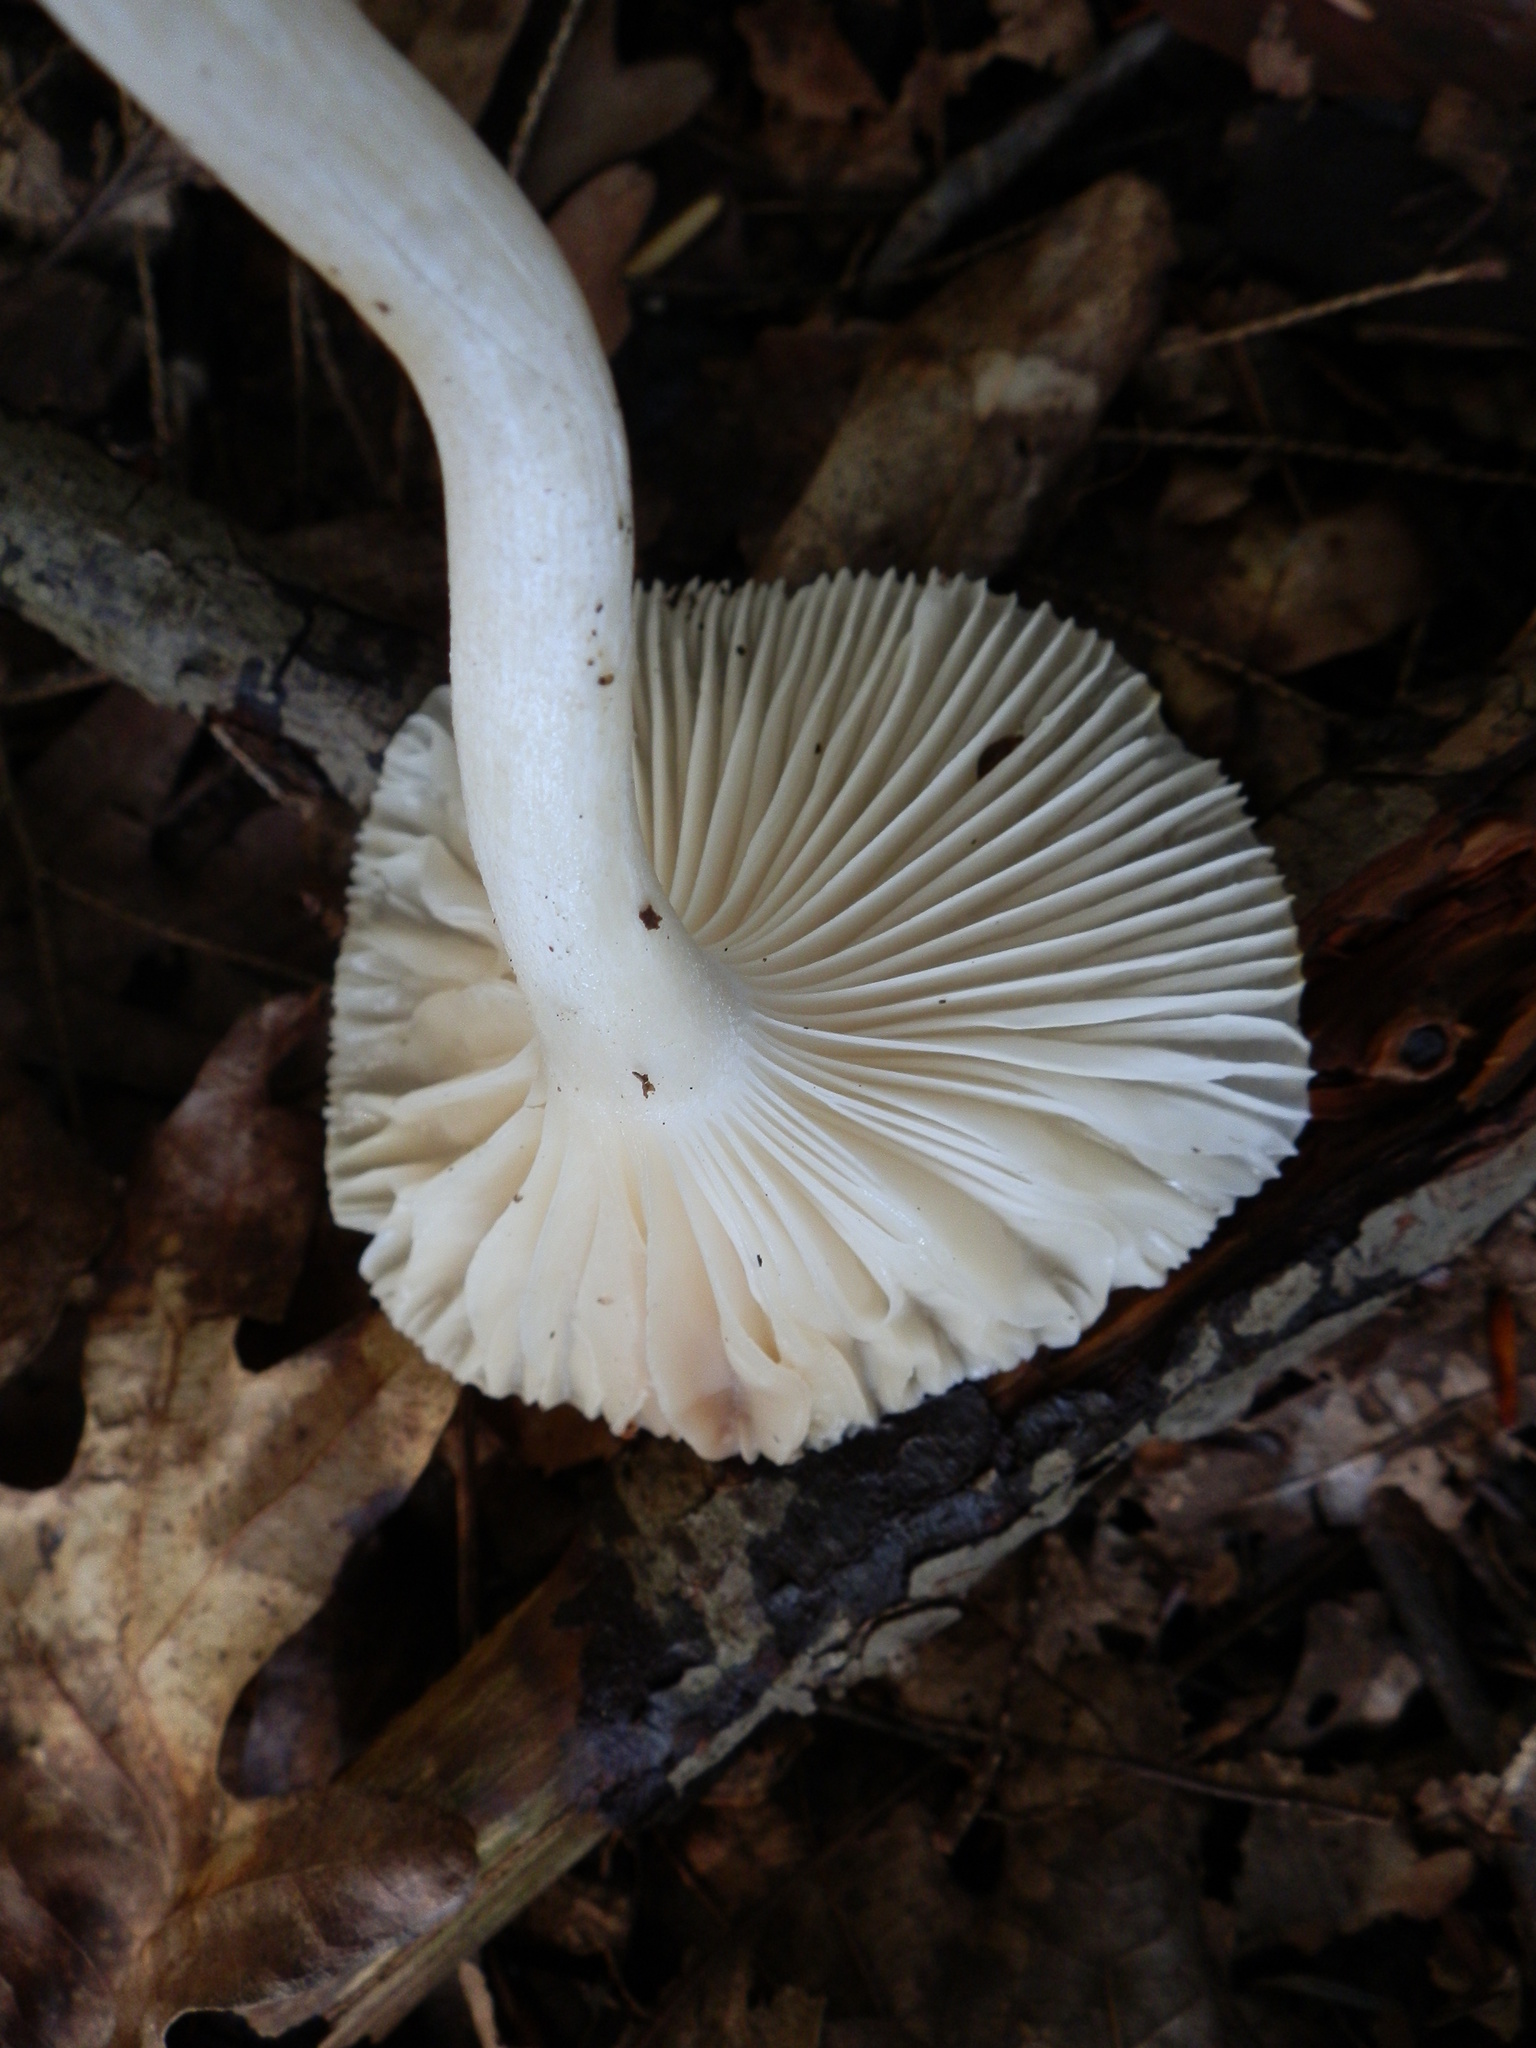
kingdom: Fungi
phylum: Basidiomycota
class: Agaricomycetes
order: Agaricales
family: Hygrophoraceae
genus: Hygrophorus
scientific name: Hygrophorus tennesseensis
